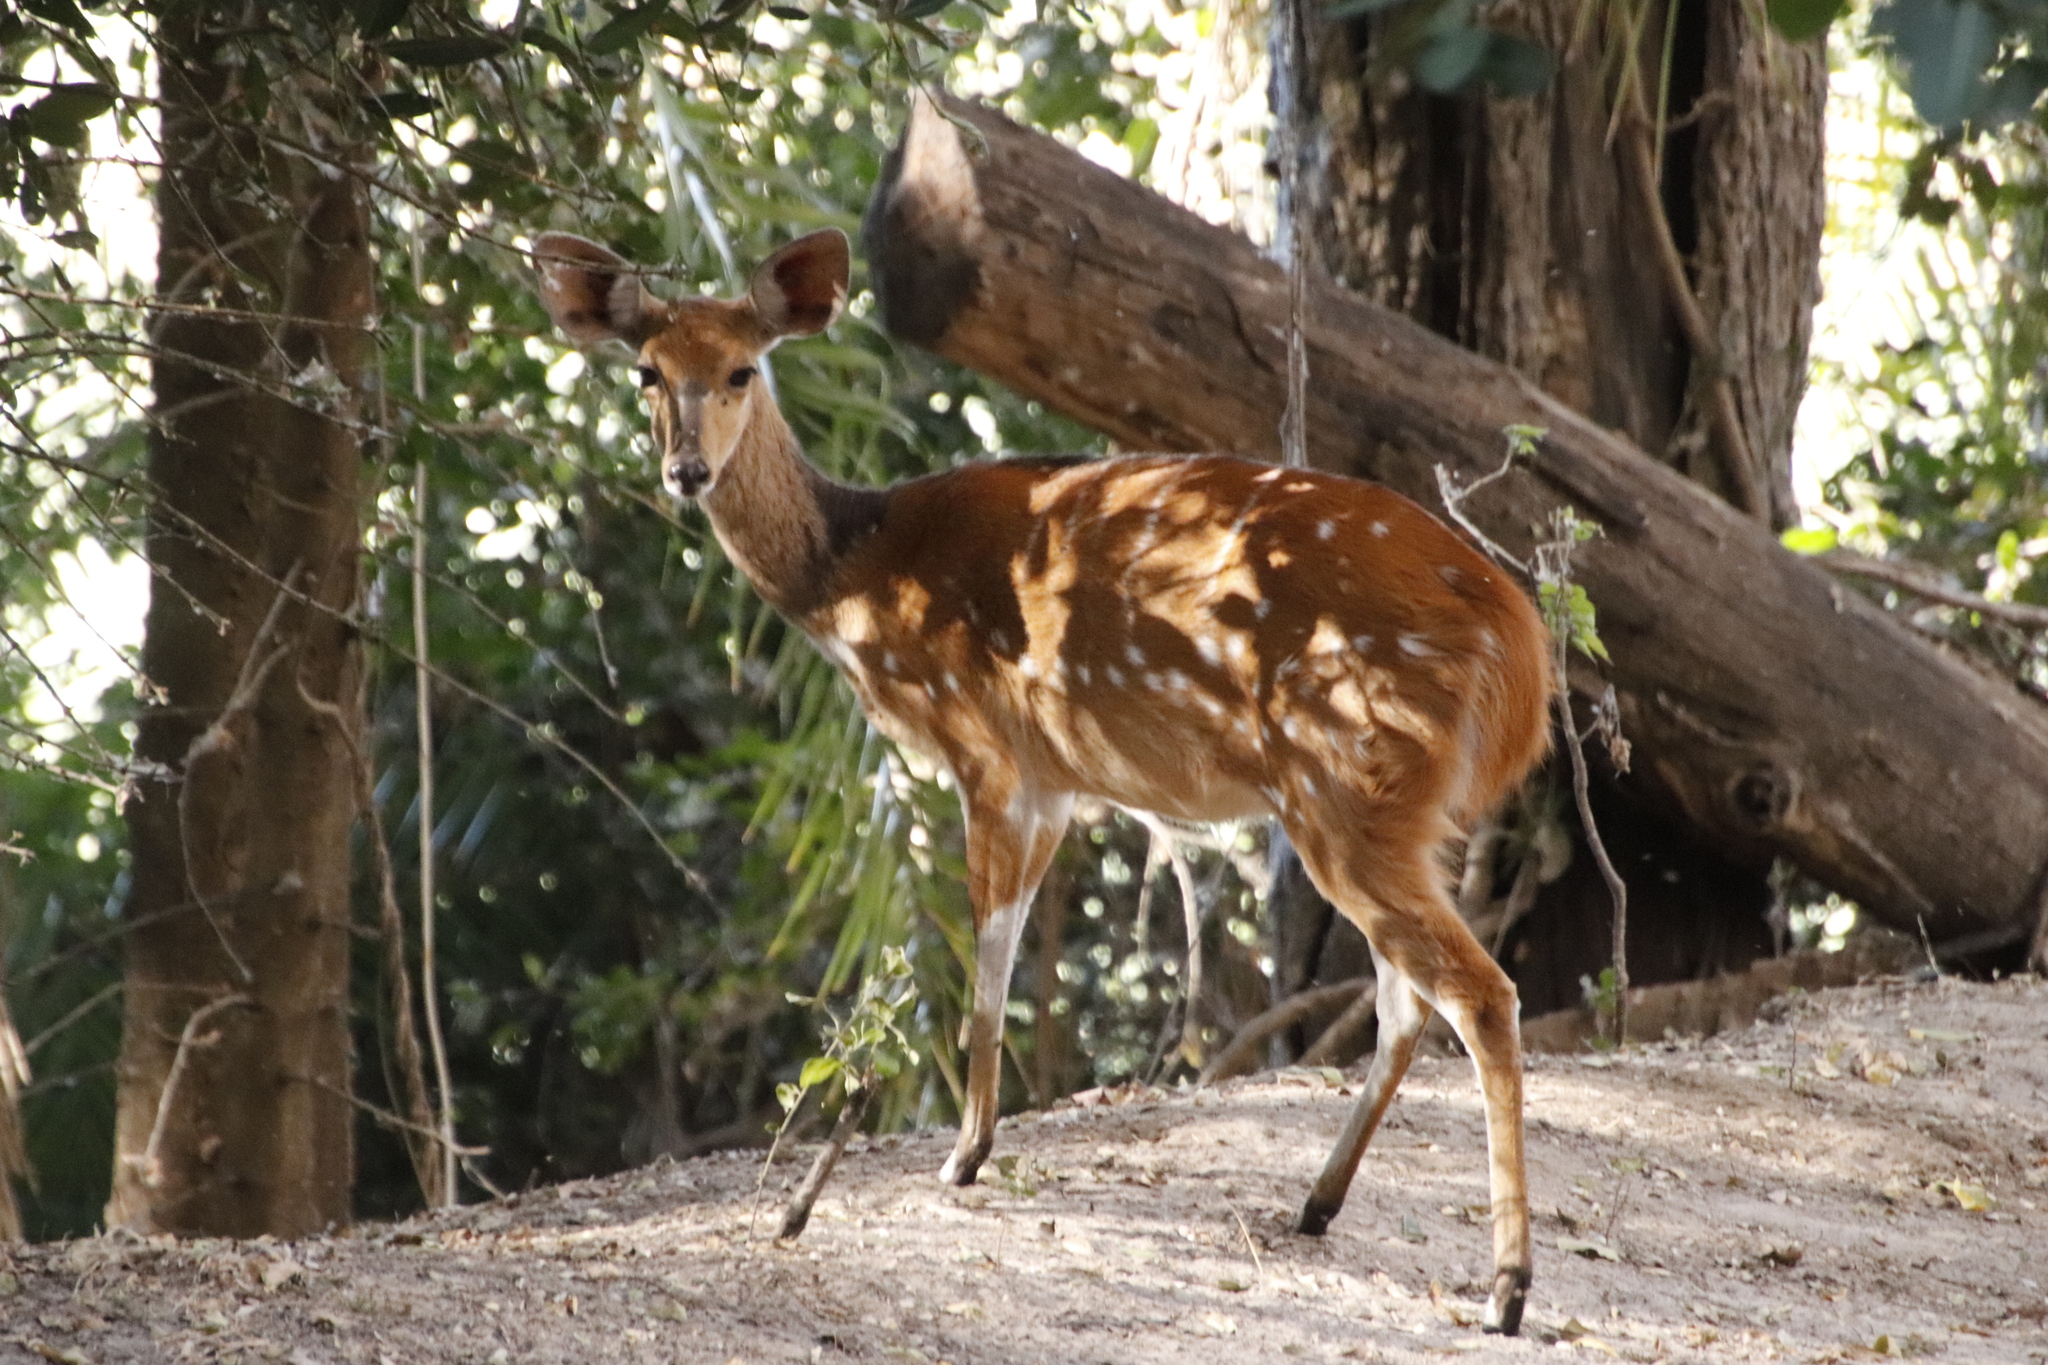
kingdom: Animalia
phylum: Chordata
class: Mammalia
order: Artiodactyla
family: Bovidae
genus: Tragelaphus
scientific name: Tragelaphus scriptus
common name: Bushbuck
